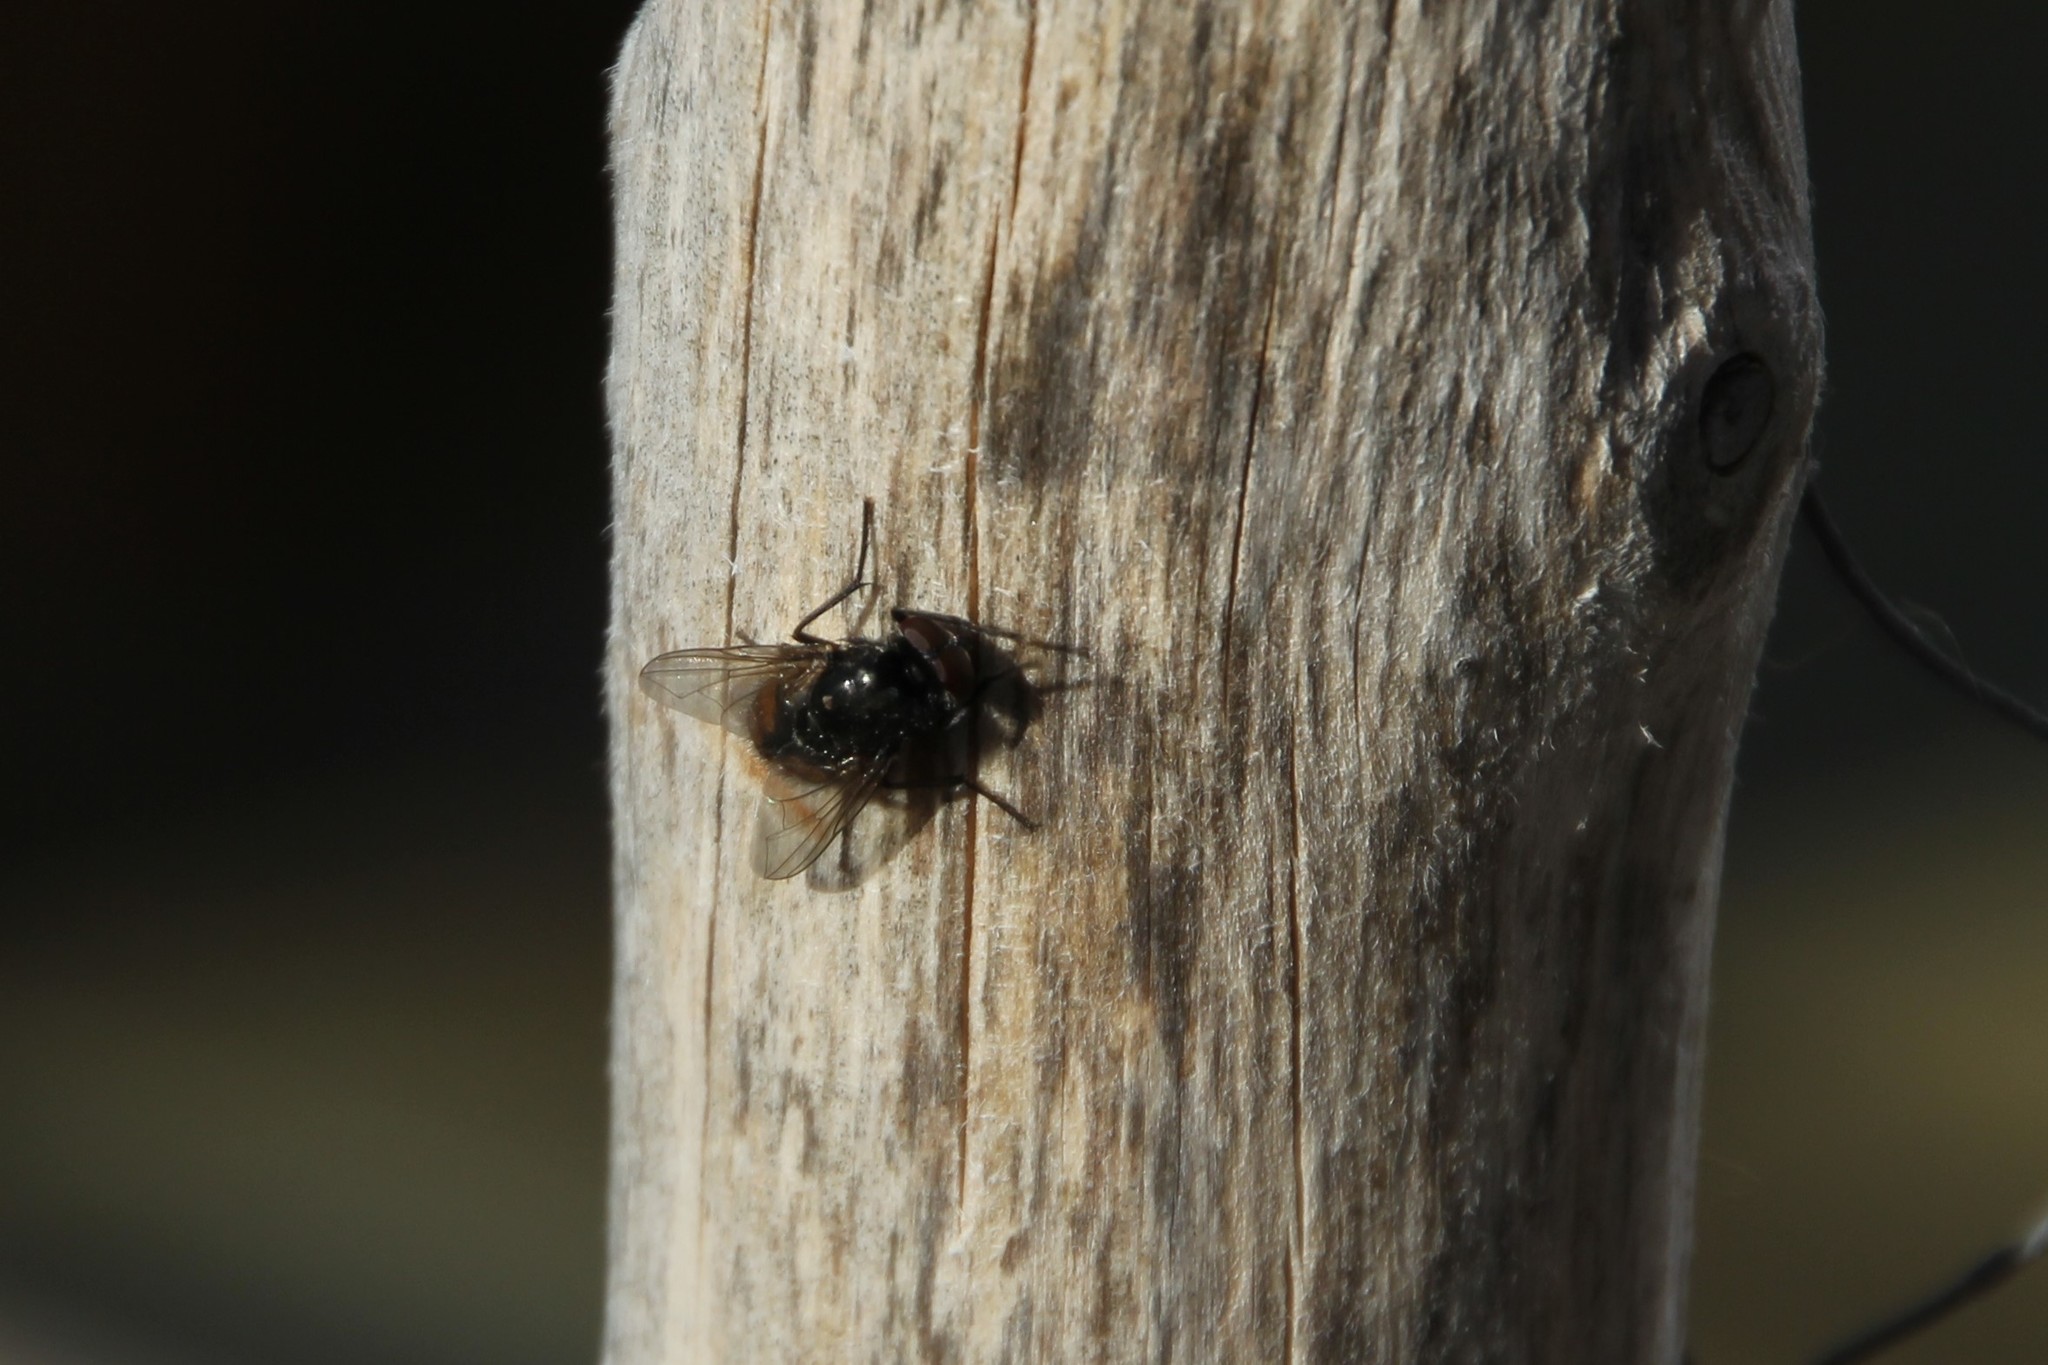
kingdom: Animalia
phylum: Arthropoda
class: Insecta
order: Diptera
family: Muscidae
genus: Musca
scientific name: Musca autumnalis
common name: Face fly
